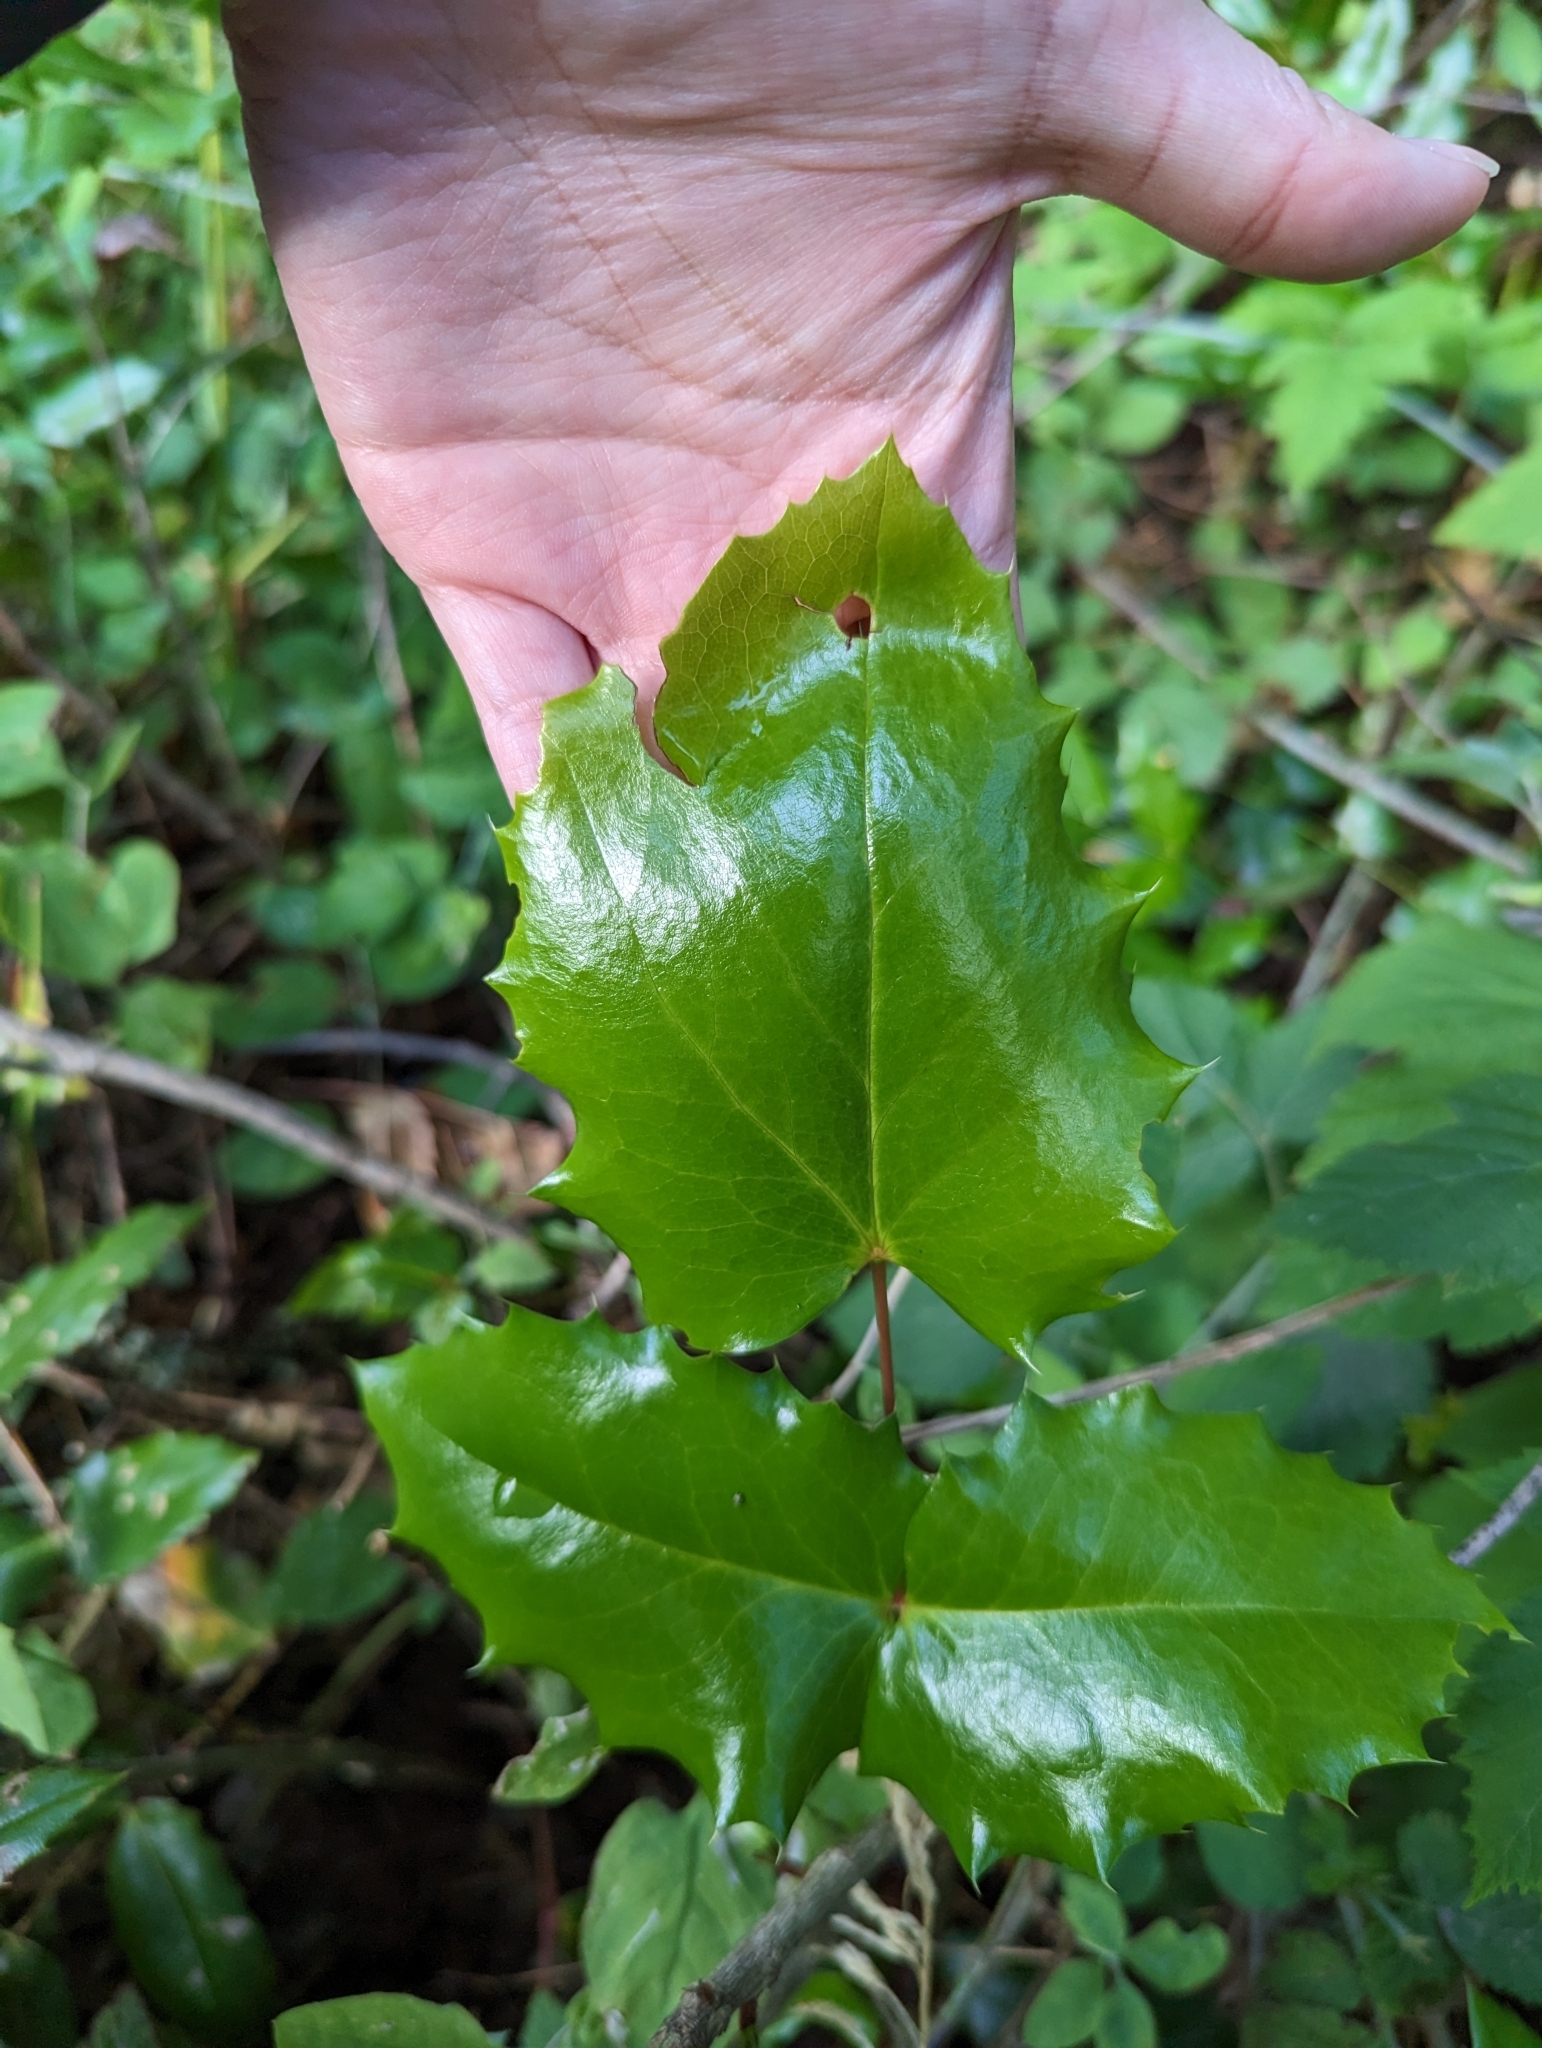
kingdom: Plantae
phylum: Tracheophyta
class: Magnoliopsida
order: Ranunculales
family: Berberidaceae
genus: Mahonia
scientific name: Mahonia aquifolium
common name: Oregon-grape
